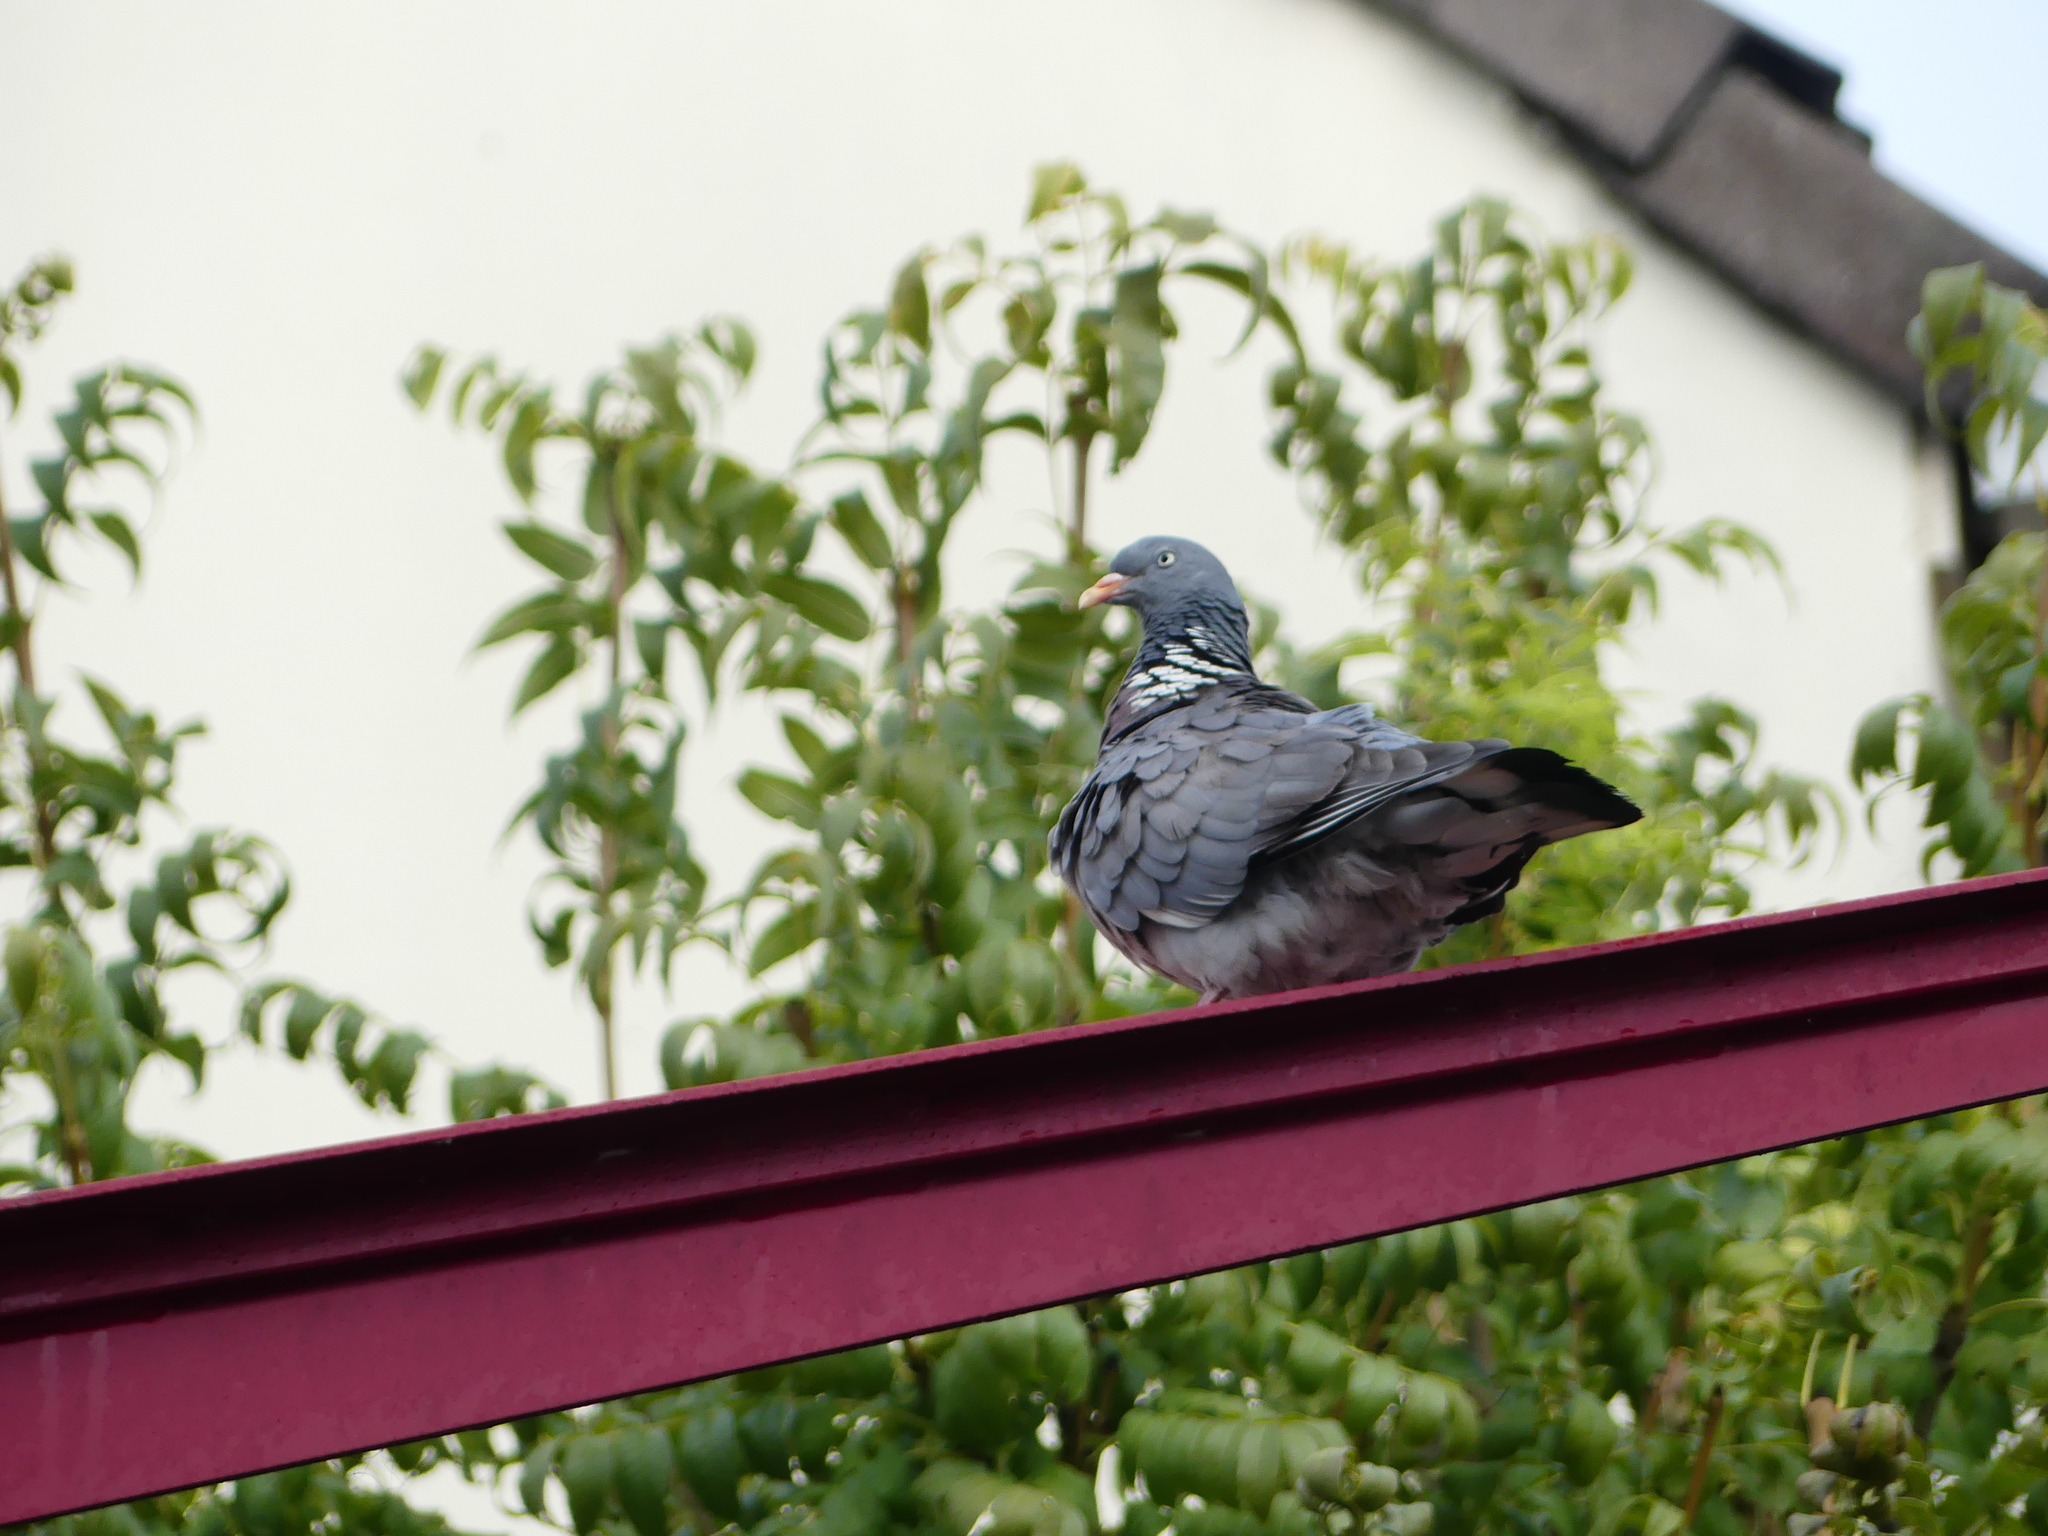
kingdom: Animalia
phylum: Chordata
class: Aves
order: Columbiformes
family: Columbidae
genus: Columba
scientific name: Columba palumbus
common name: Common wood pigeon
